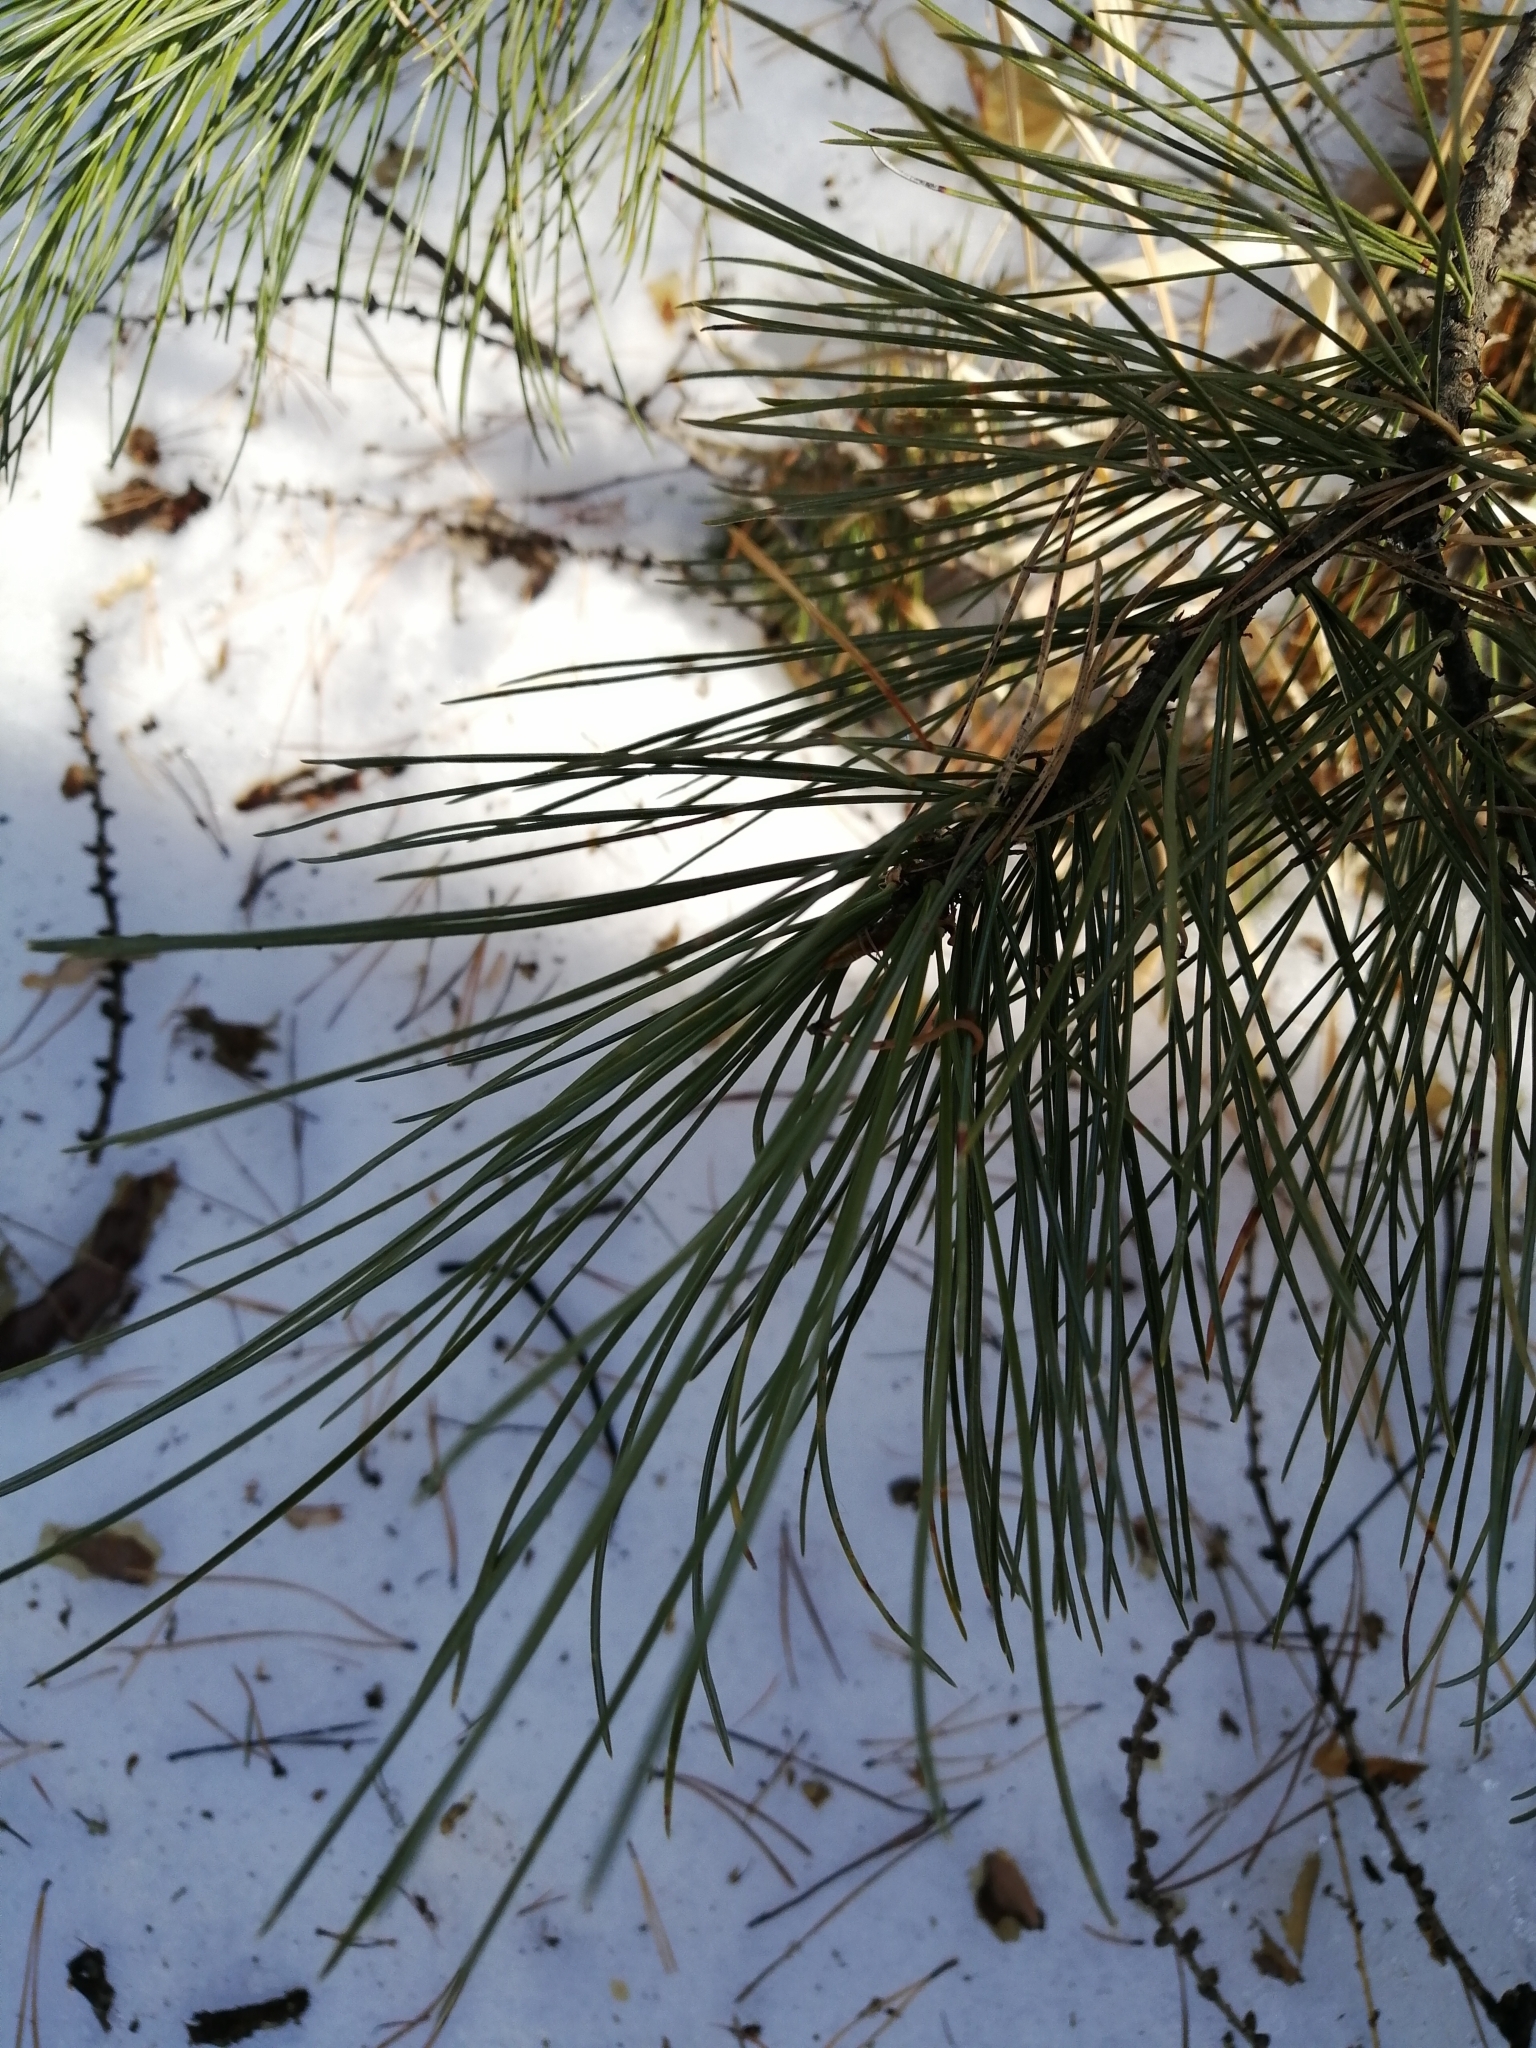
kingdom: Plantae
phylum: Tracheophyta
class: Pinopsida
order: Pinales
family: Pinaceae
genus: Pinus
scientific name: Pinus sibirica
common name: Siberian pine
